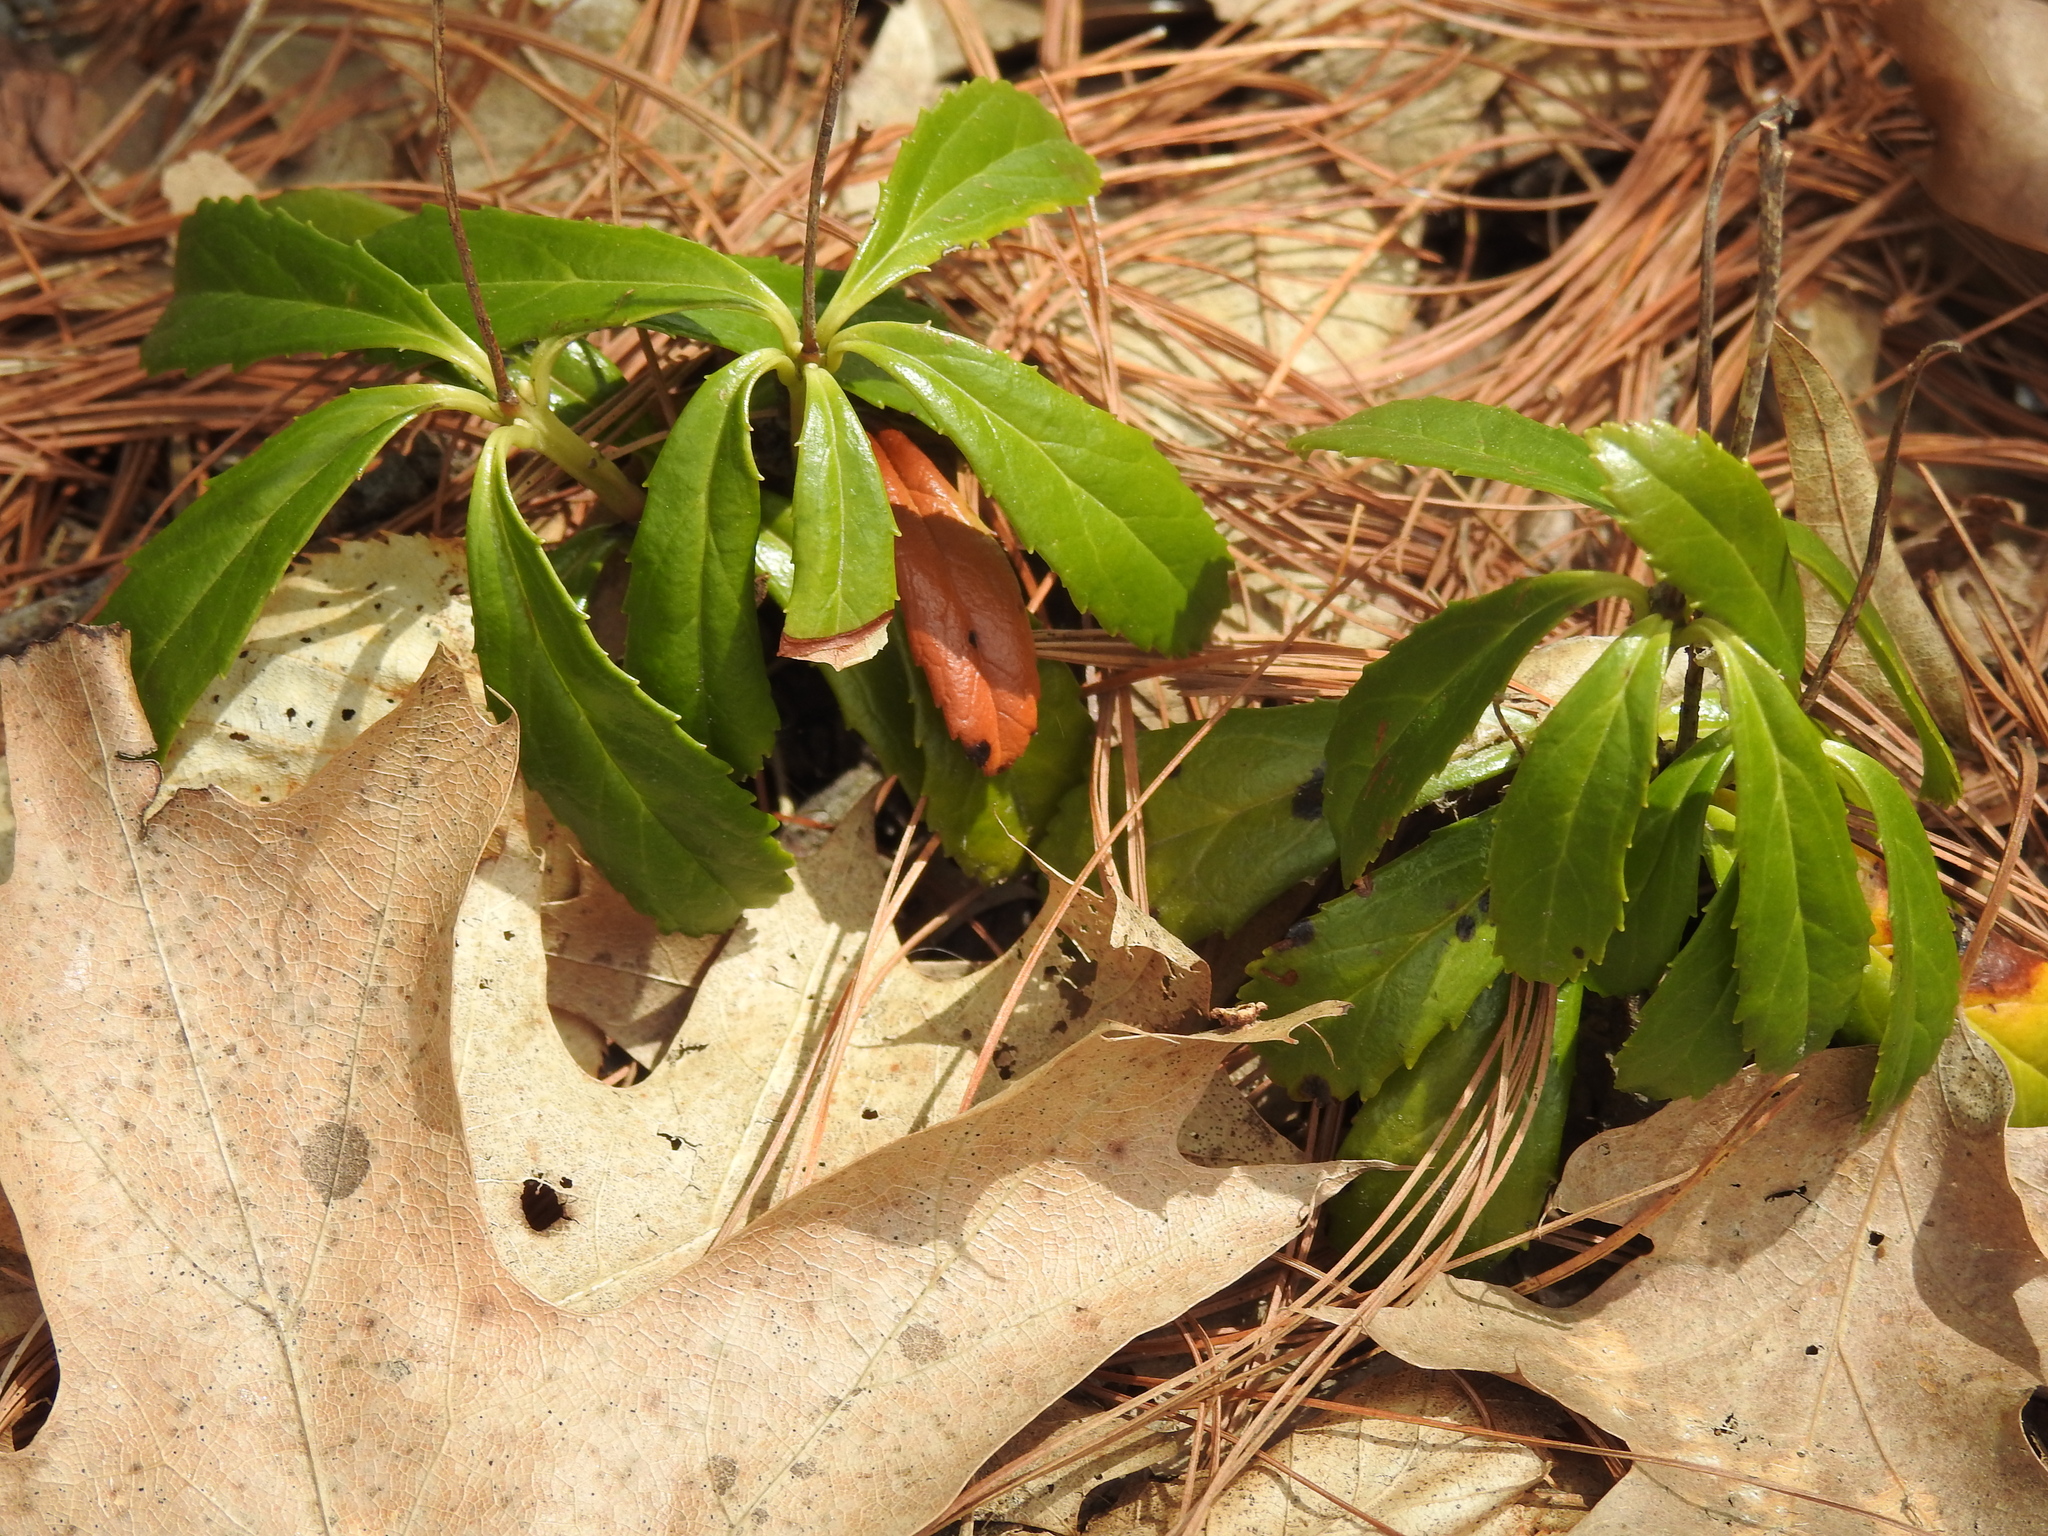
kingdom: Plantae
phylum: Tracheophyta
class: Magnoliopsida
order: Ericales
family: Ericaceae
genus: Chimaphila
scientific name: Chimaphila umbellata
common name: Pipsissewa
